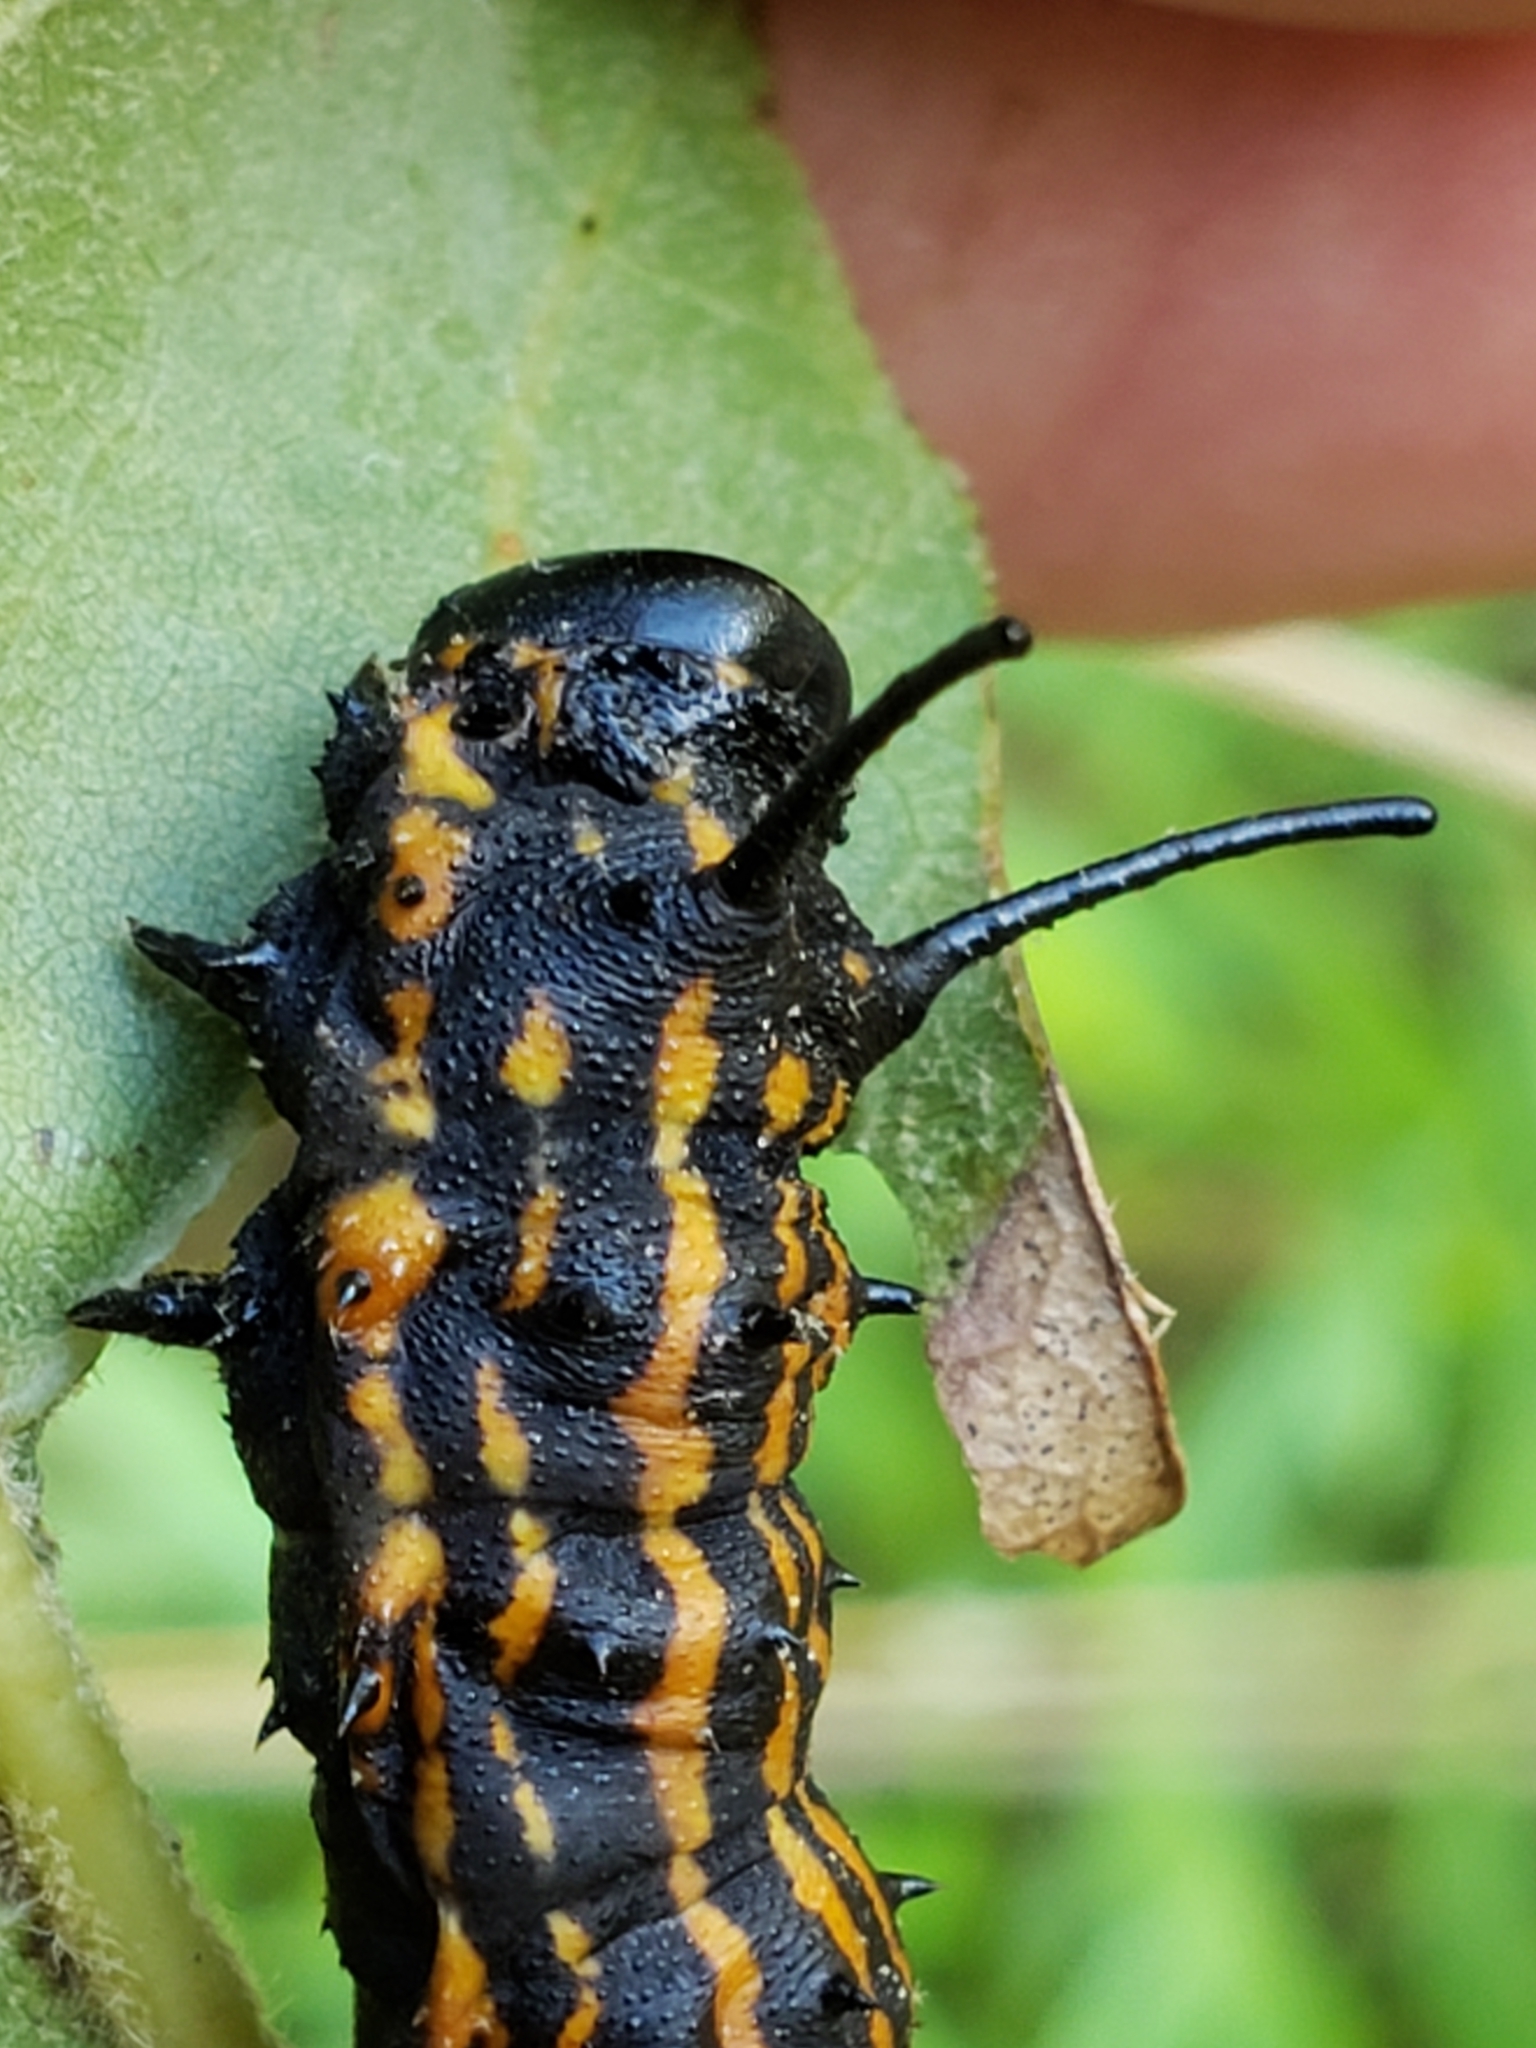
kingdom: Animalia
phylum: Arthropoda
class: Insecta
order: Lepidoptera
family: Saturniidae
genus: Anisota
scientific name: Anisota senatoria
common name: Orange-striped oakworm moth
